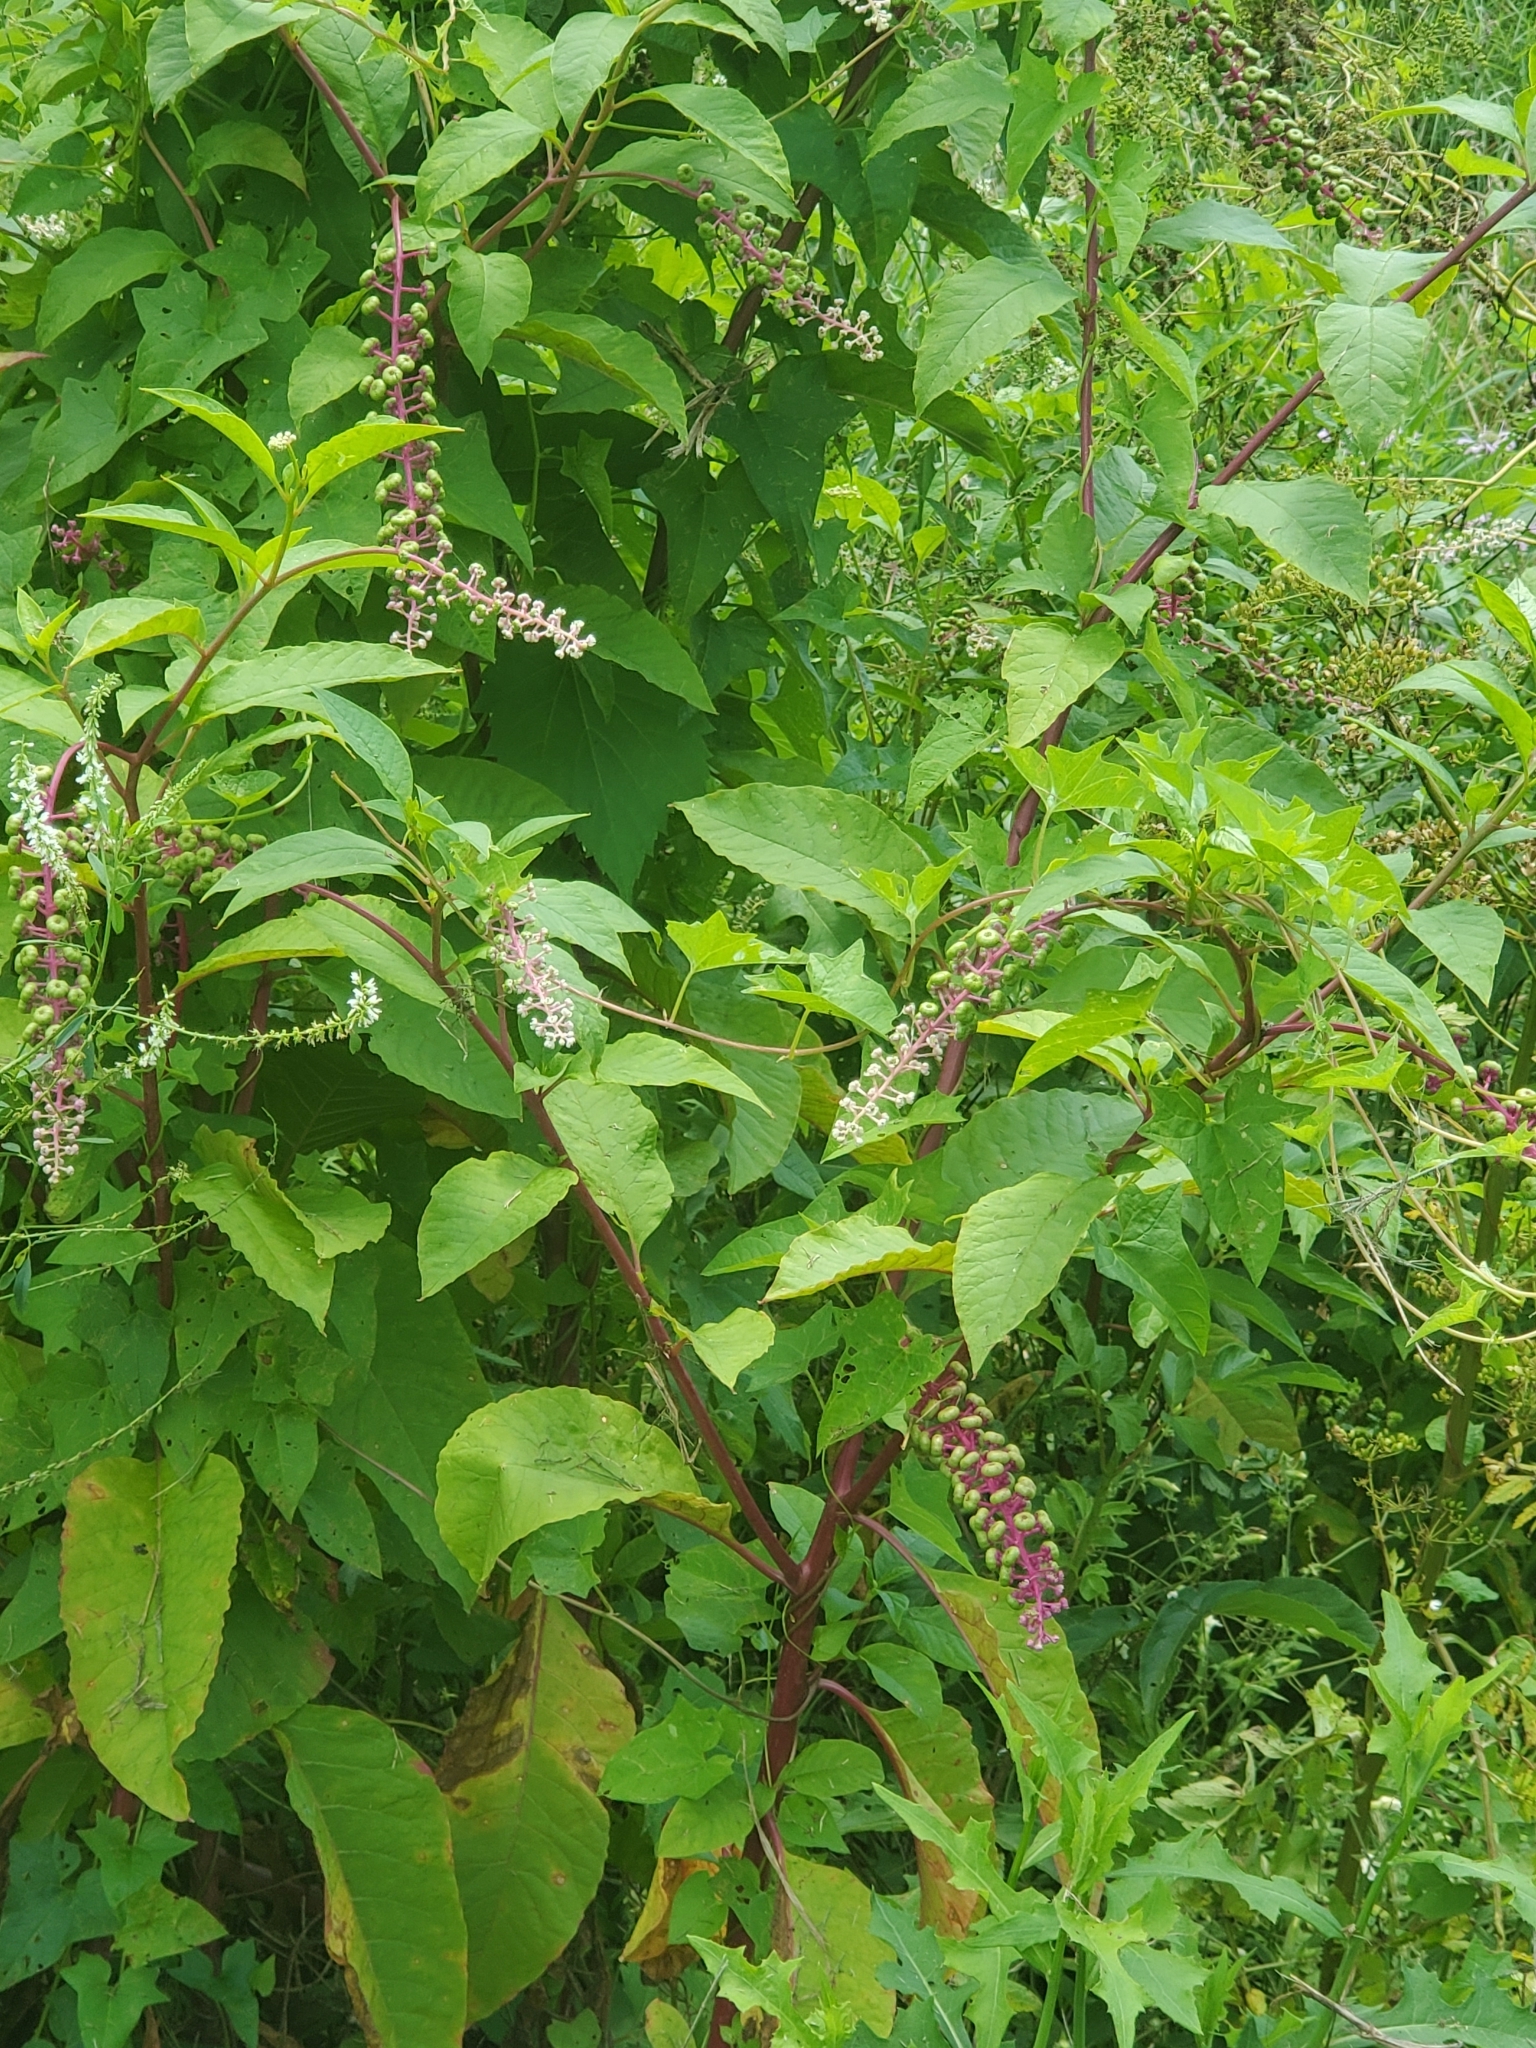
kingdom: Plantae
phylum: Tracheophyta
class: Magnoliopsida
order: Caryophyllales
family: Phytolaccaceae
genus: Phytolacca
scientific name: Phytolacca americana
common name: American pokeweed
